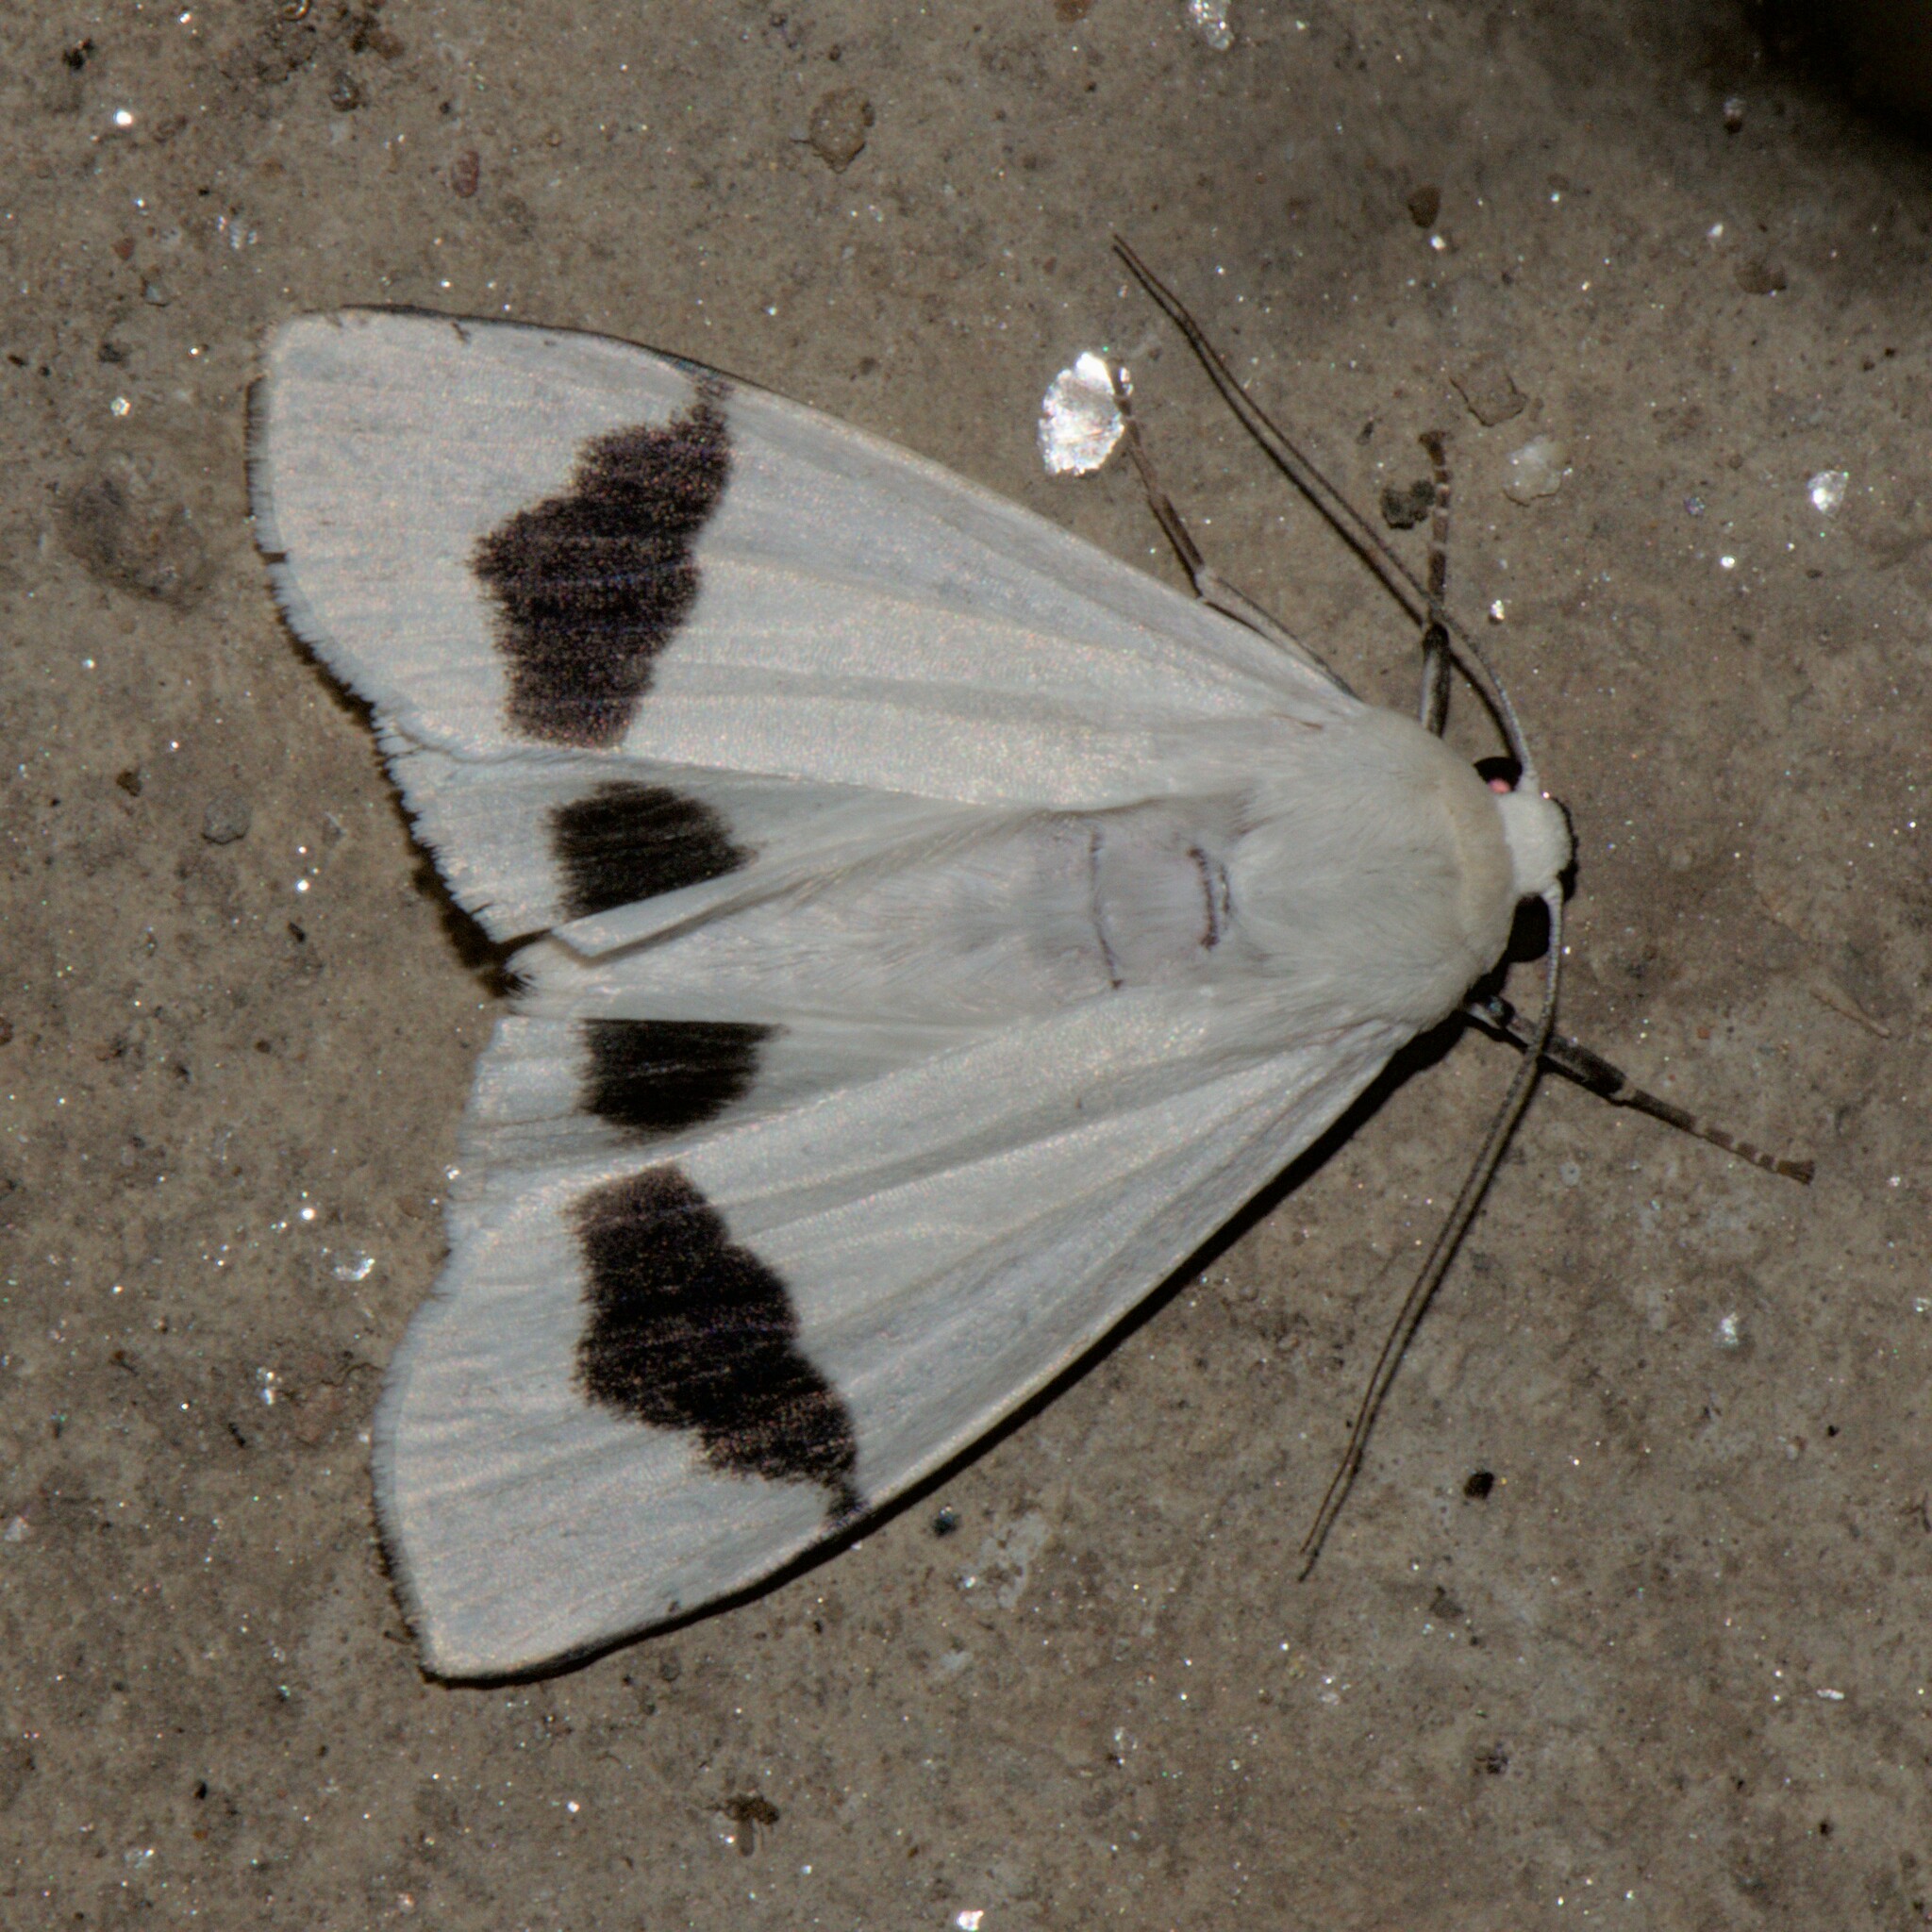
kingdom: Animalia
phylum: Arthropoda
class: Insecta
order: Lepidoptera
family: Erebidae
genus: Vamuna
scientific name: Vamuna remelana
